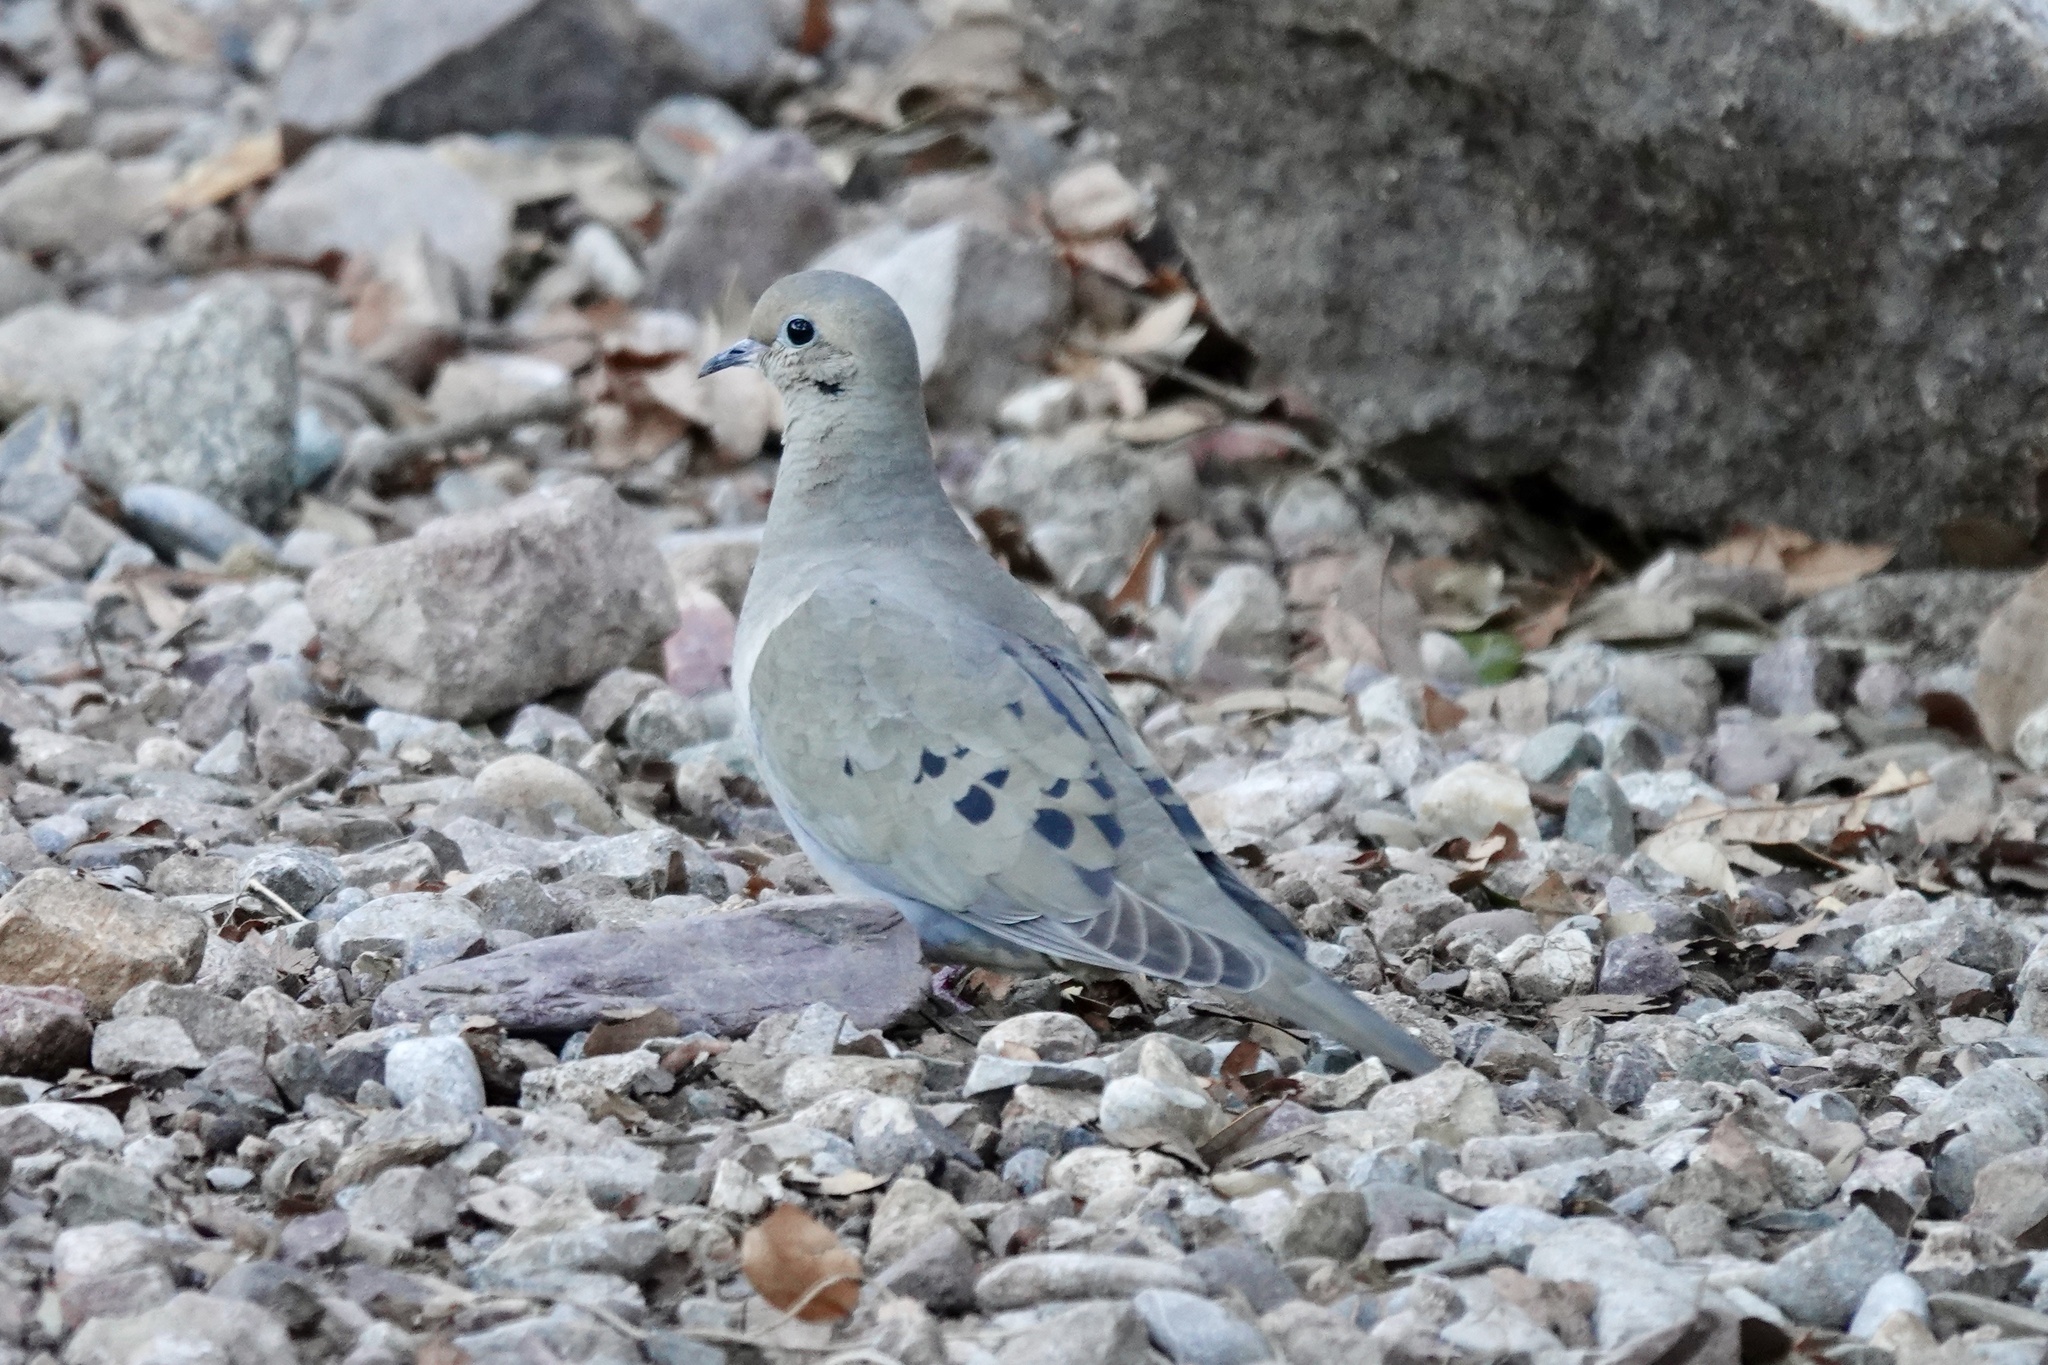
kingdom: Animalia
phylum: Chordata
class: Aves
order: Columbiformes
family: Columbidae
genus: Zenaida
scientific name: Zenaida macroura
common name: Mourning dove
